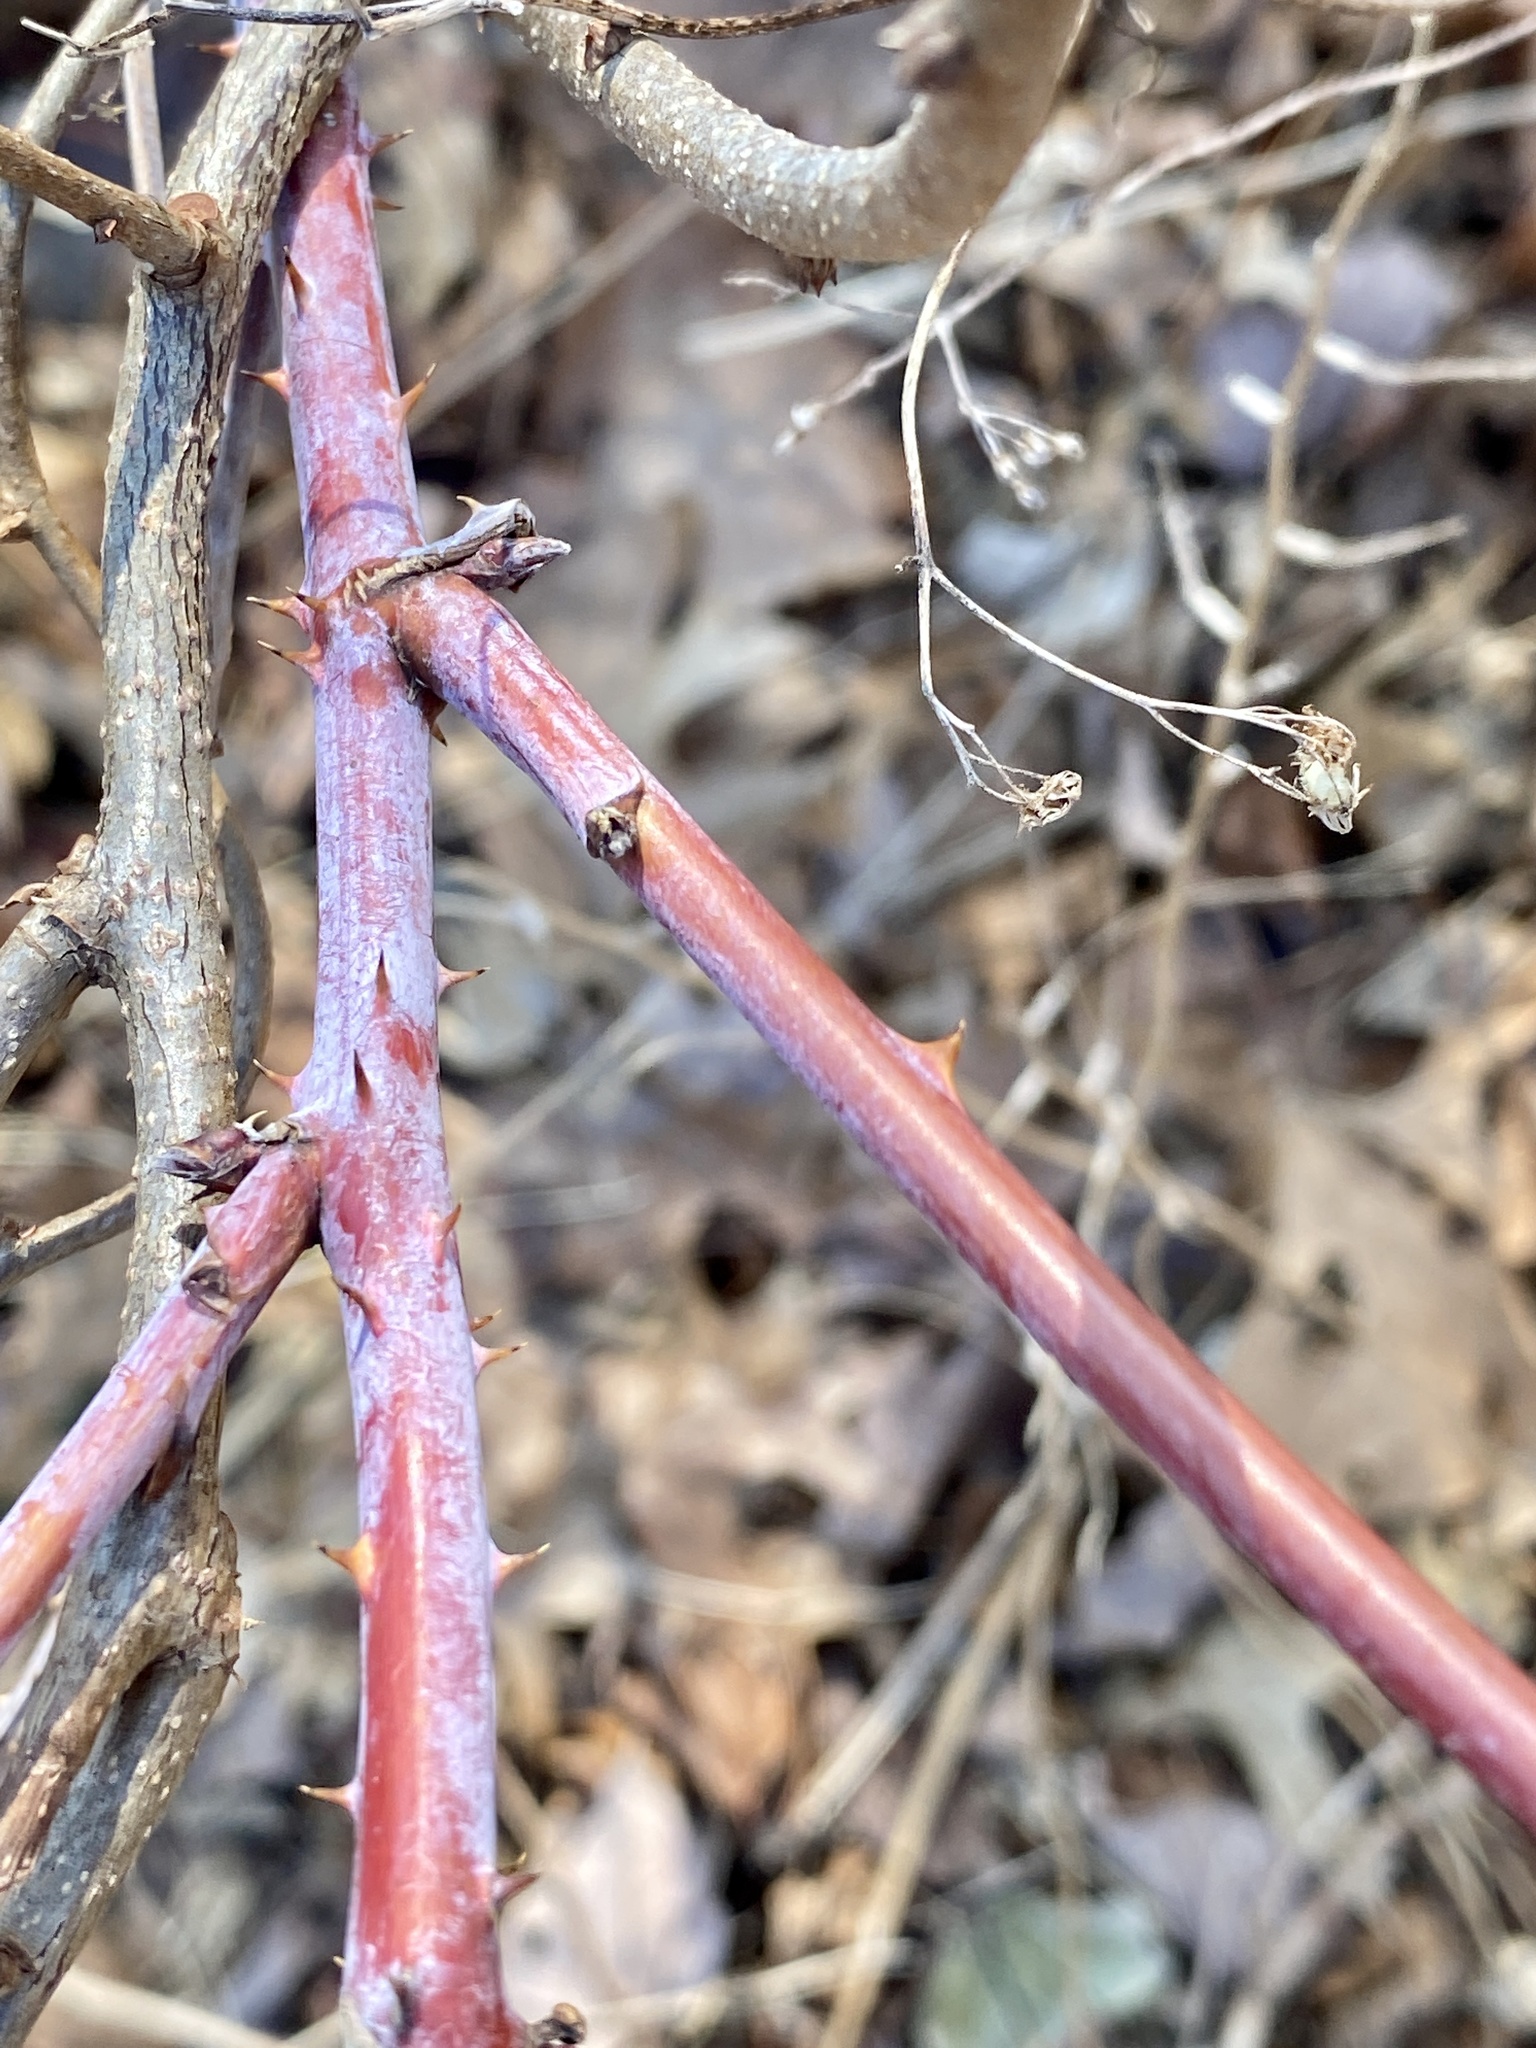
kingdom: Plantae
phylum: Tracheophyta
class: Magnoliopsida
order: Rosales
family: Rosaceae
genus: Rubus
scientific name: Rubus occidentalis
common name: Black raspberry
